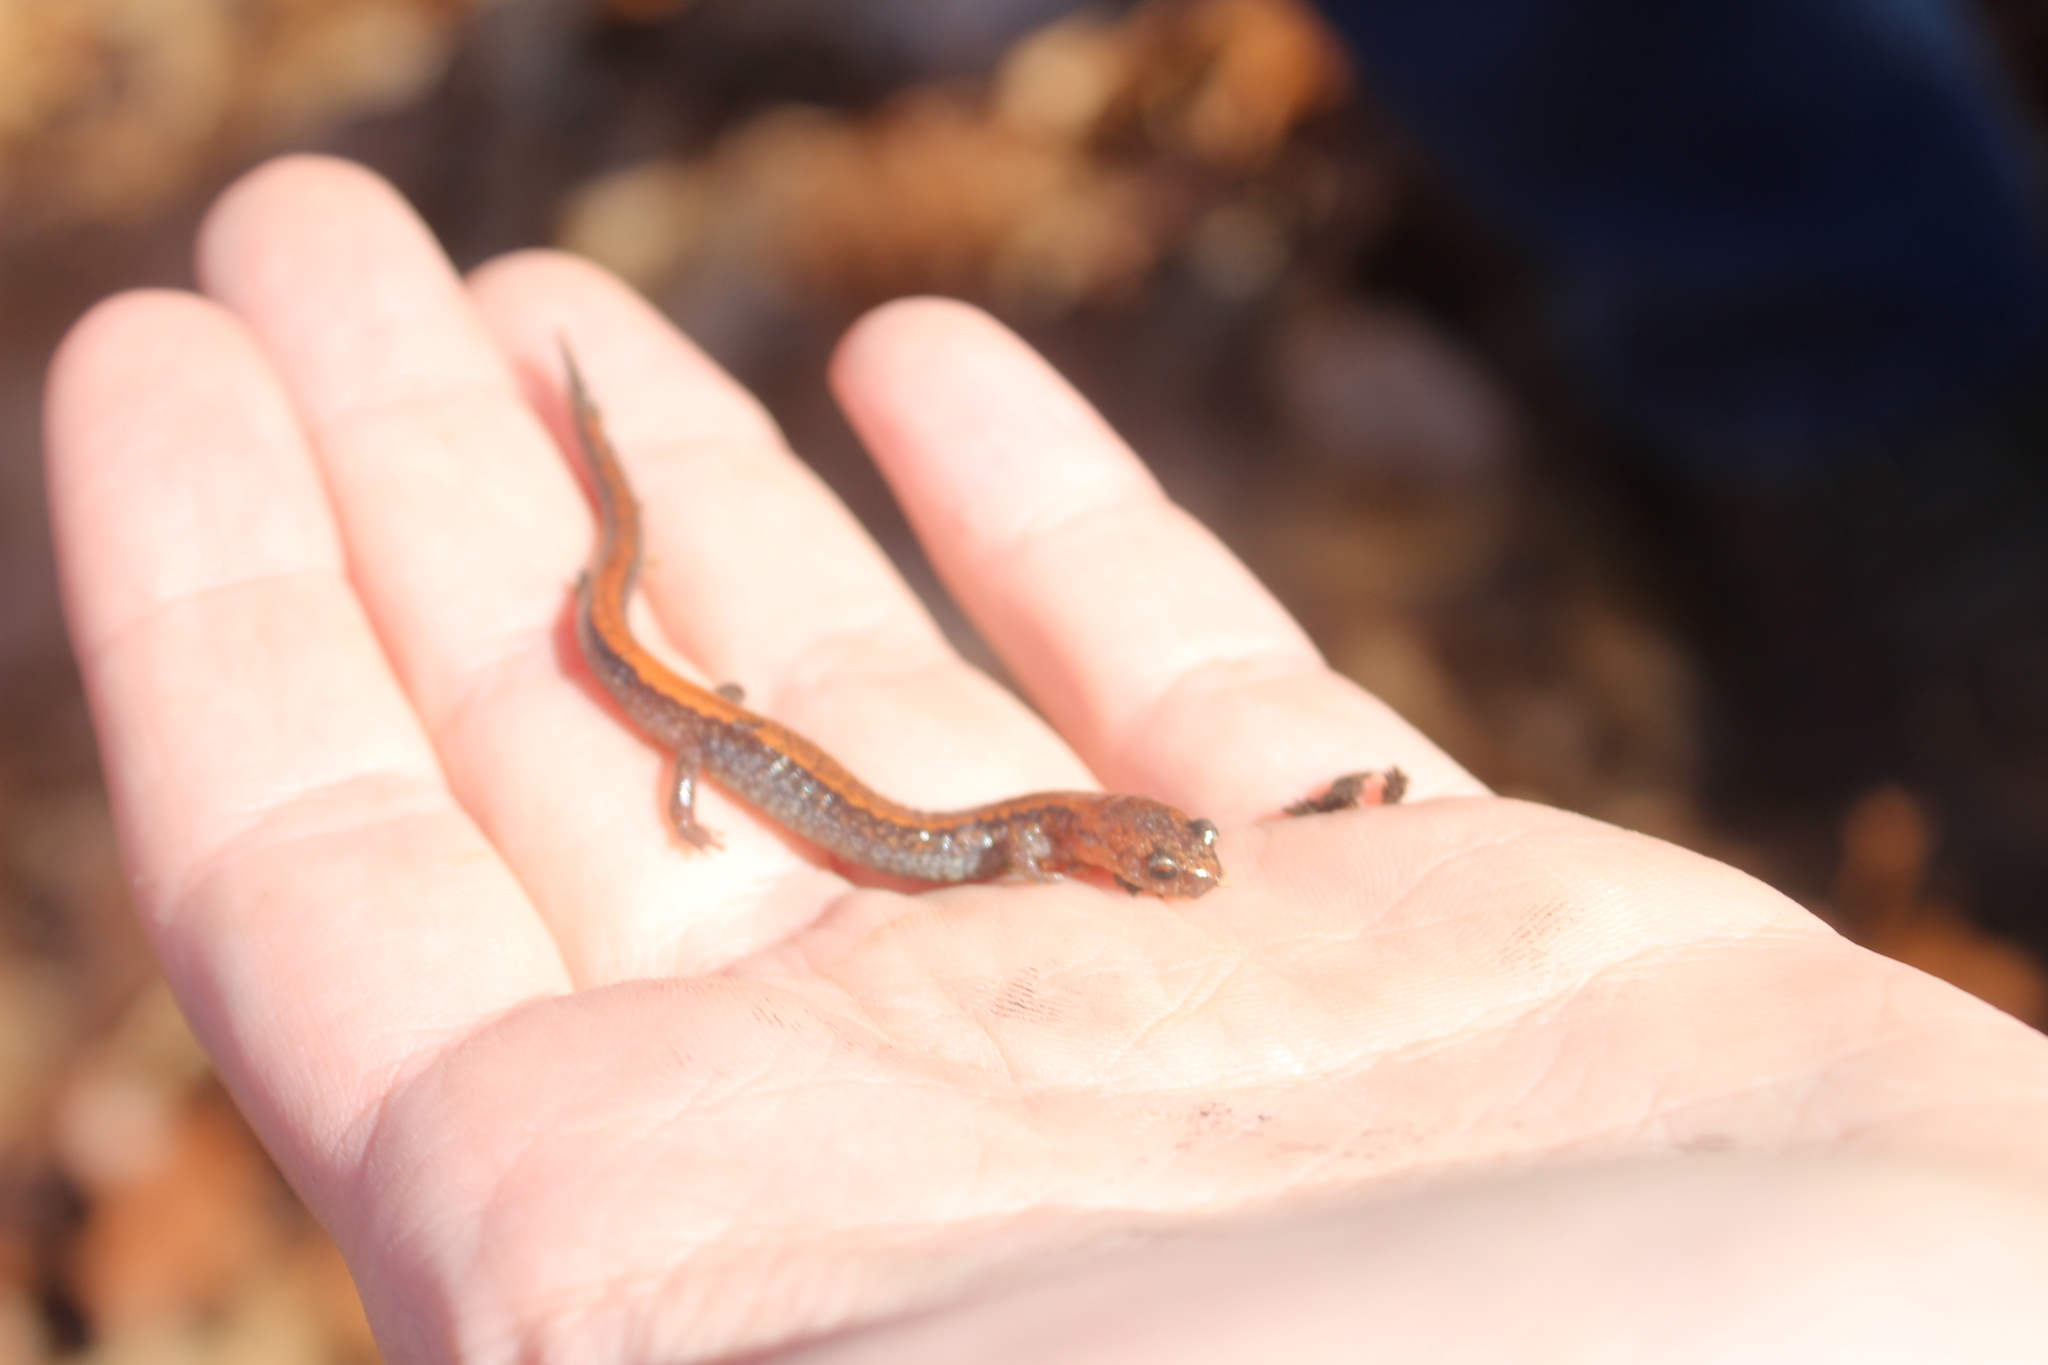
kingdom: Animalia
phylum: Chordata
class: Amphibia
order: Caudata
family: Plethodontidae
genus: Plethodon
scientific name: Plethodon cinereus
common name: Redback salamander
